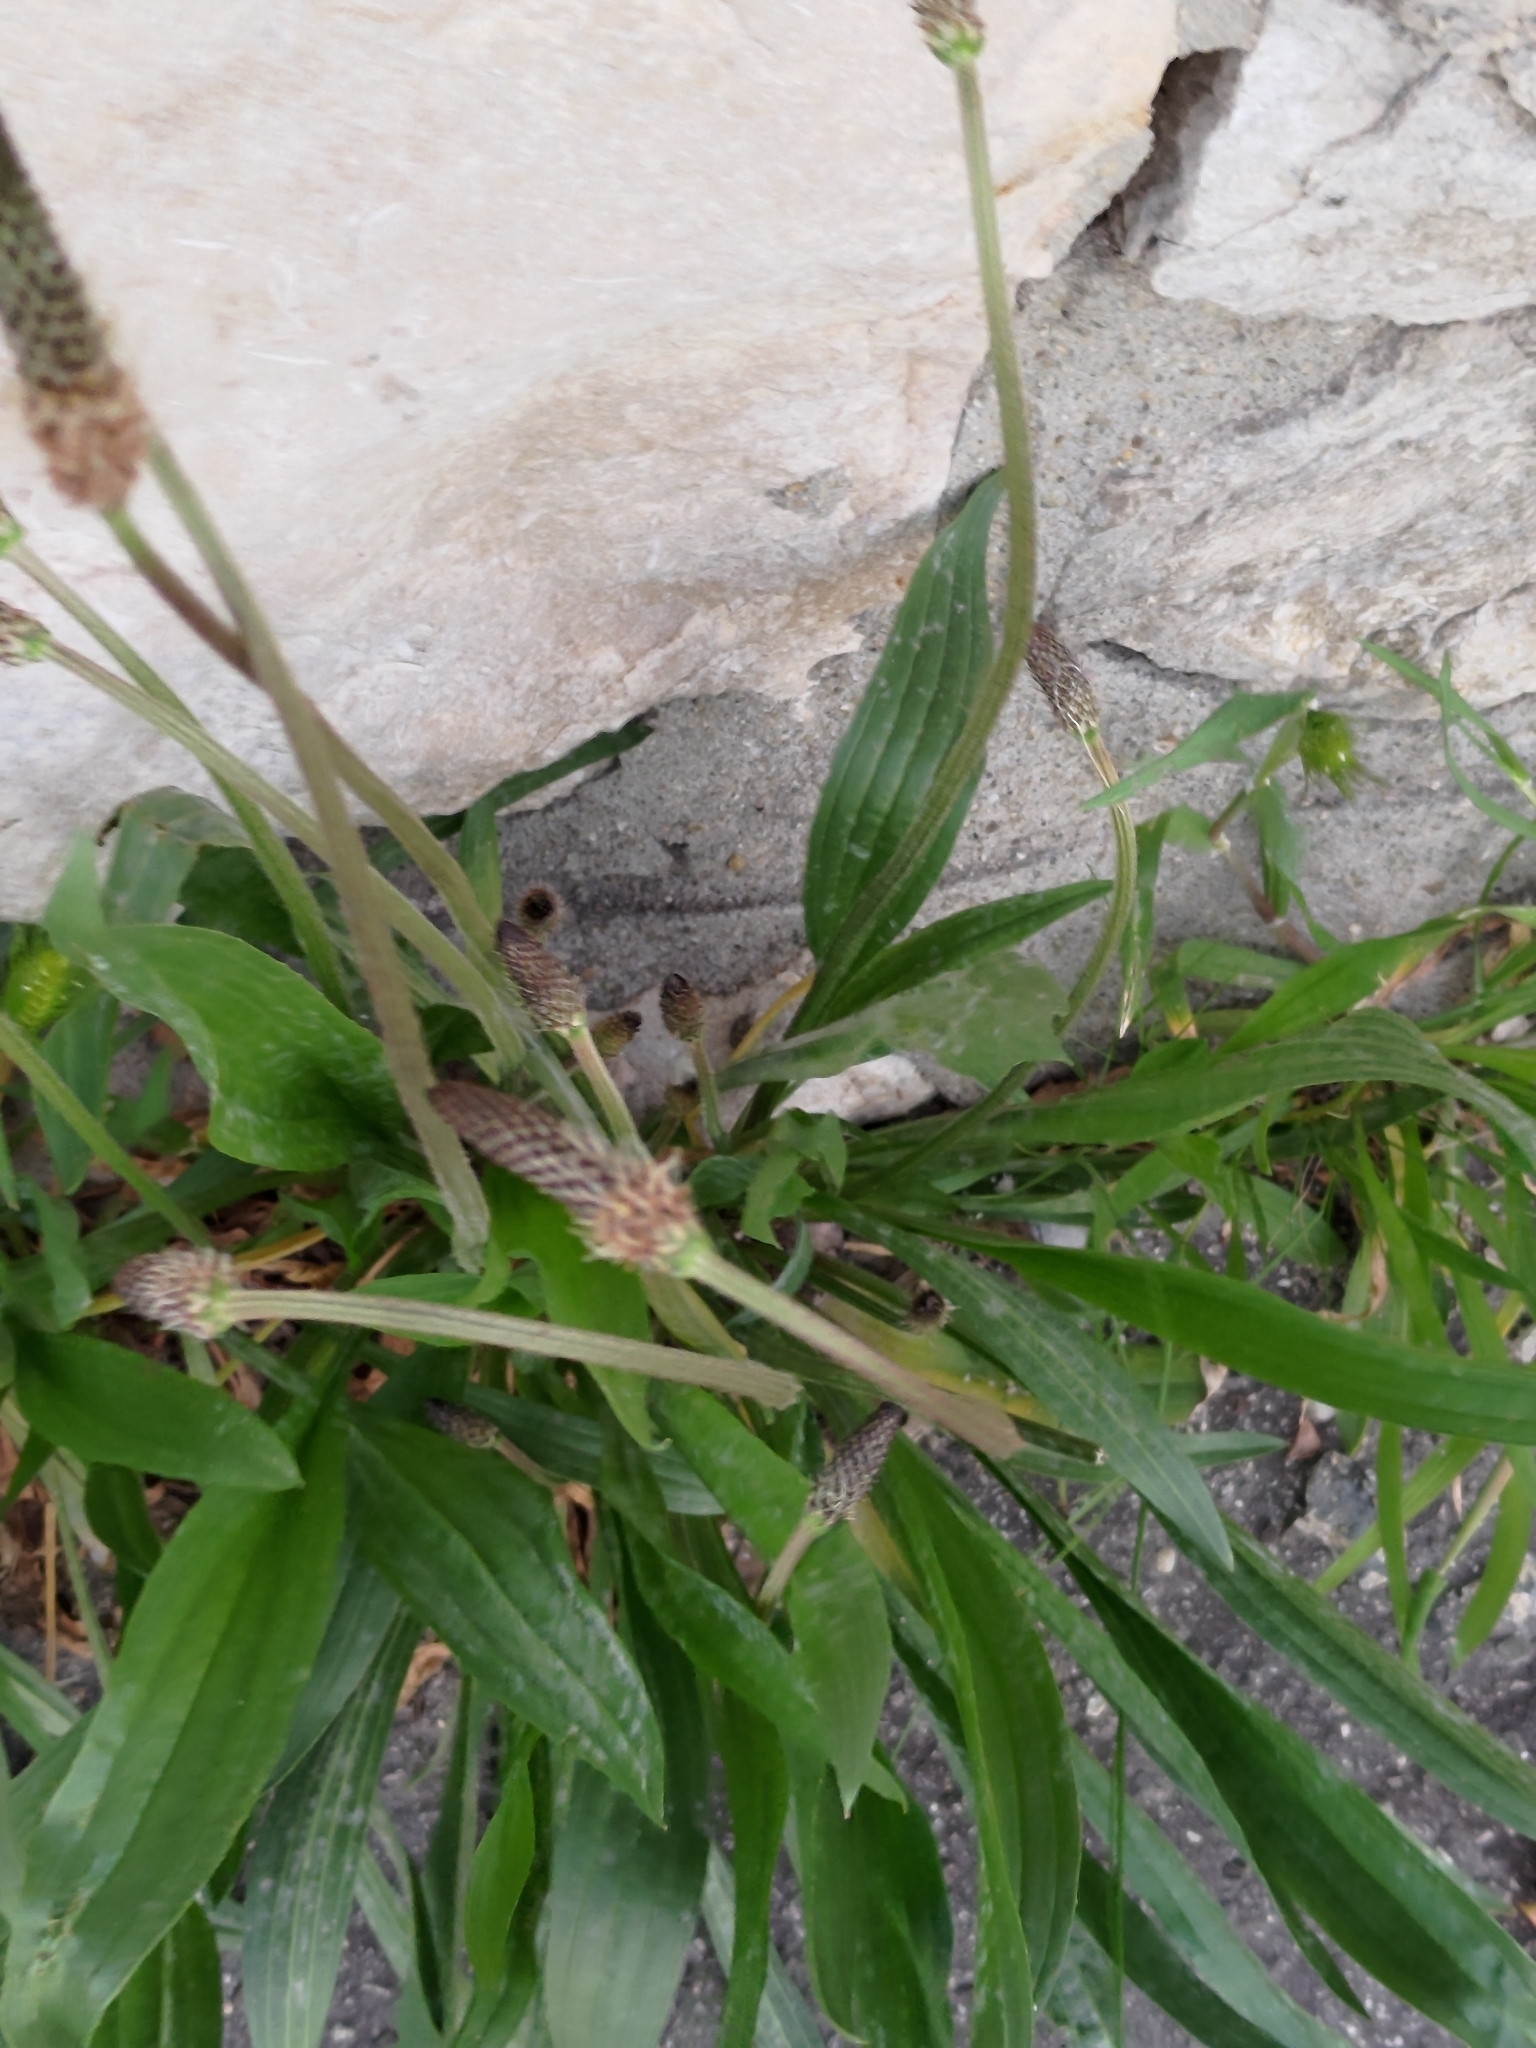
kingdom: Plantae
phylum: Tracheophyta
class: Magnoliopsida
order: Lamiales
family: Plantaginaceae
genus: Plantago
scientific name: Plantago lanceolata
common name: Ribwort plantain
